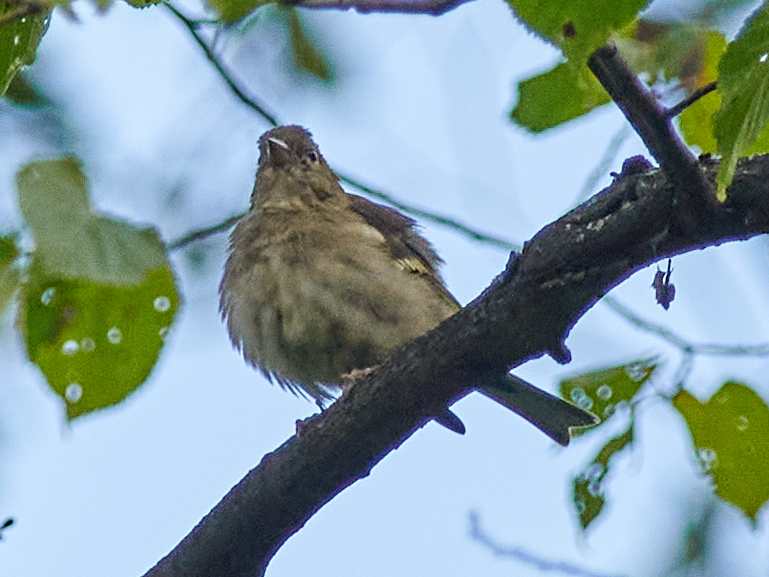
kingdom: Animalia
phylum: Chordata
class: Aves
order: Passeriformes
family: Fringillidae
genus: Fringilla
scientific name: Fringilla coelebs
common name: Common chaffinch
